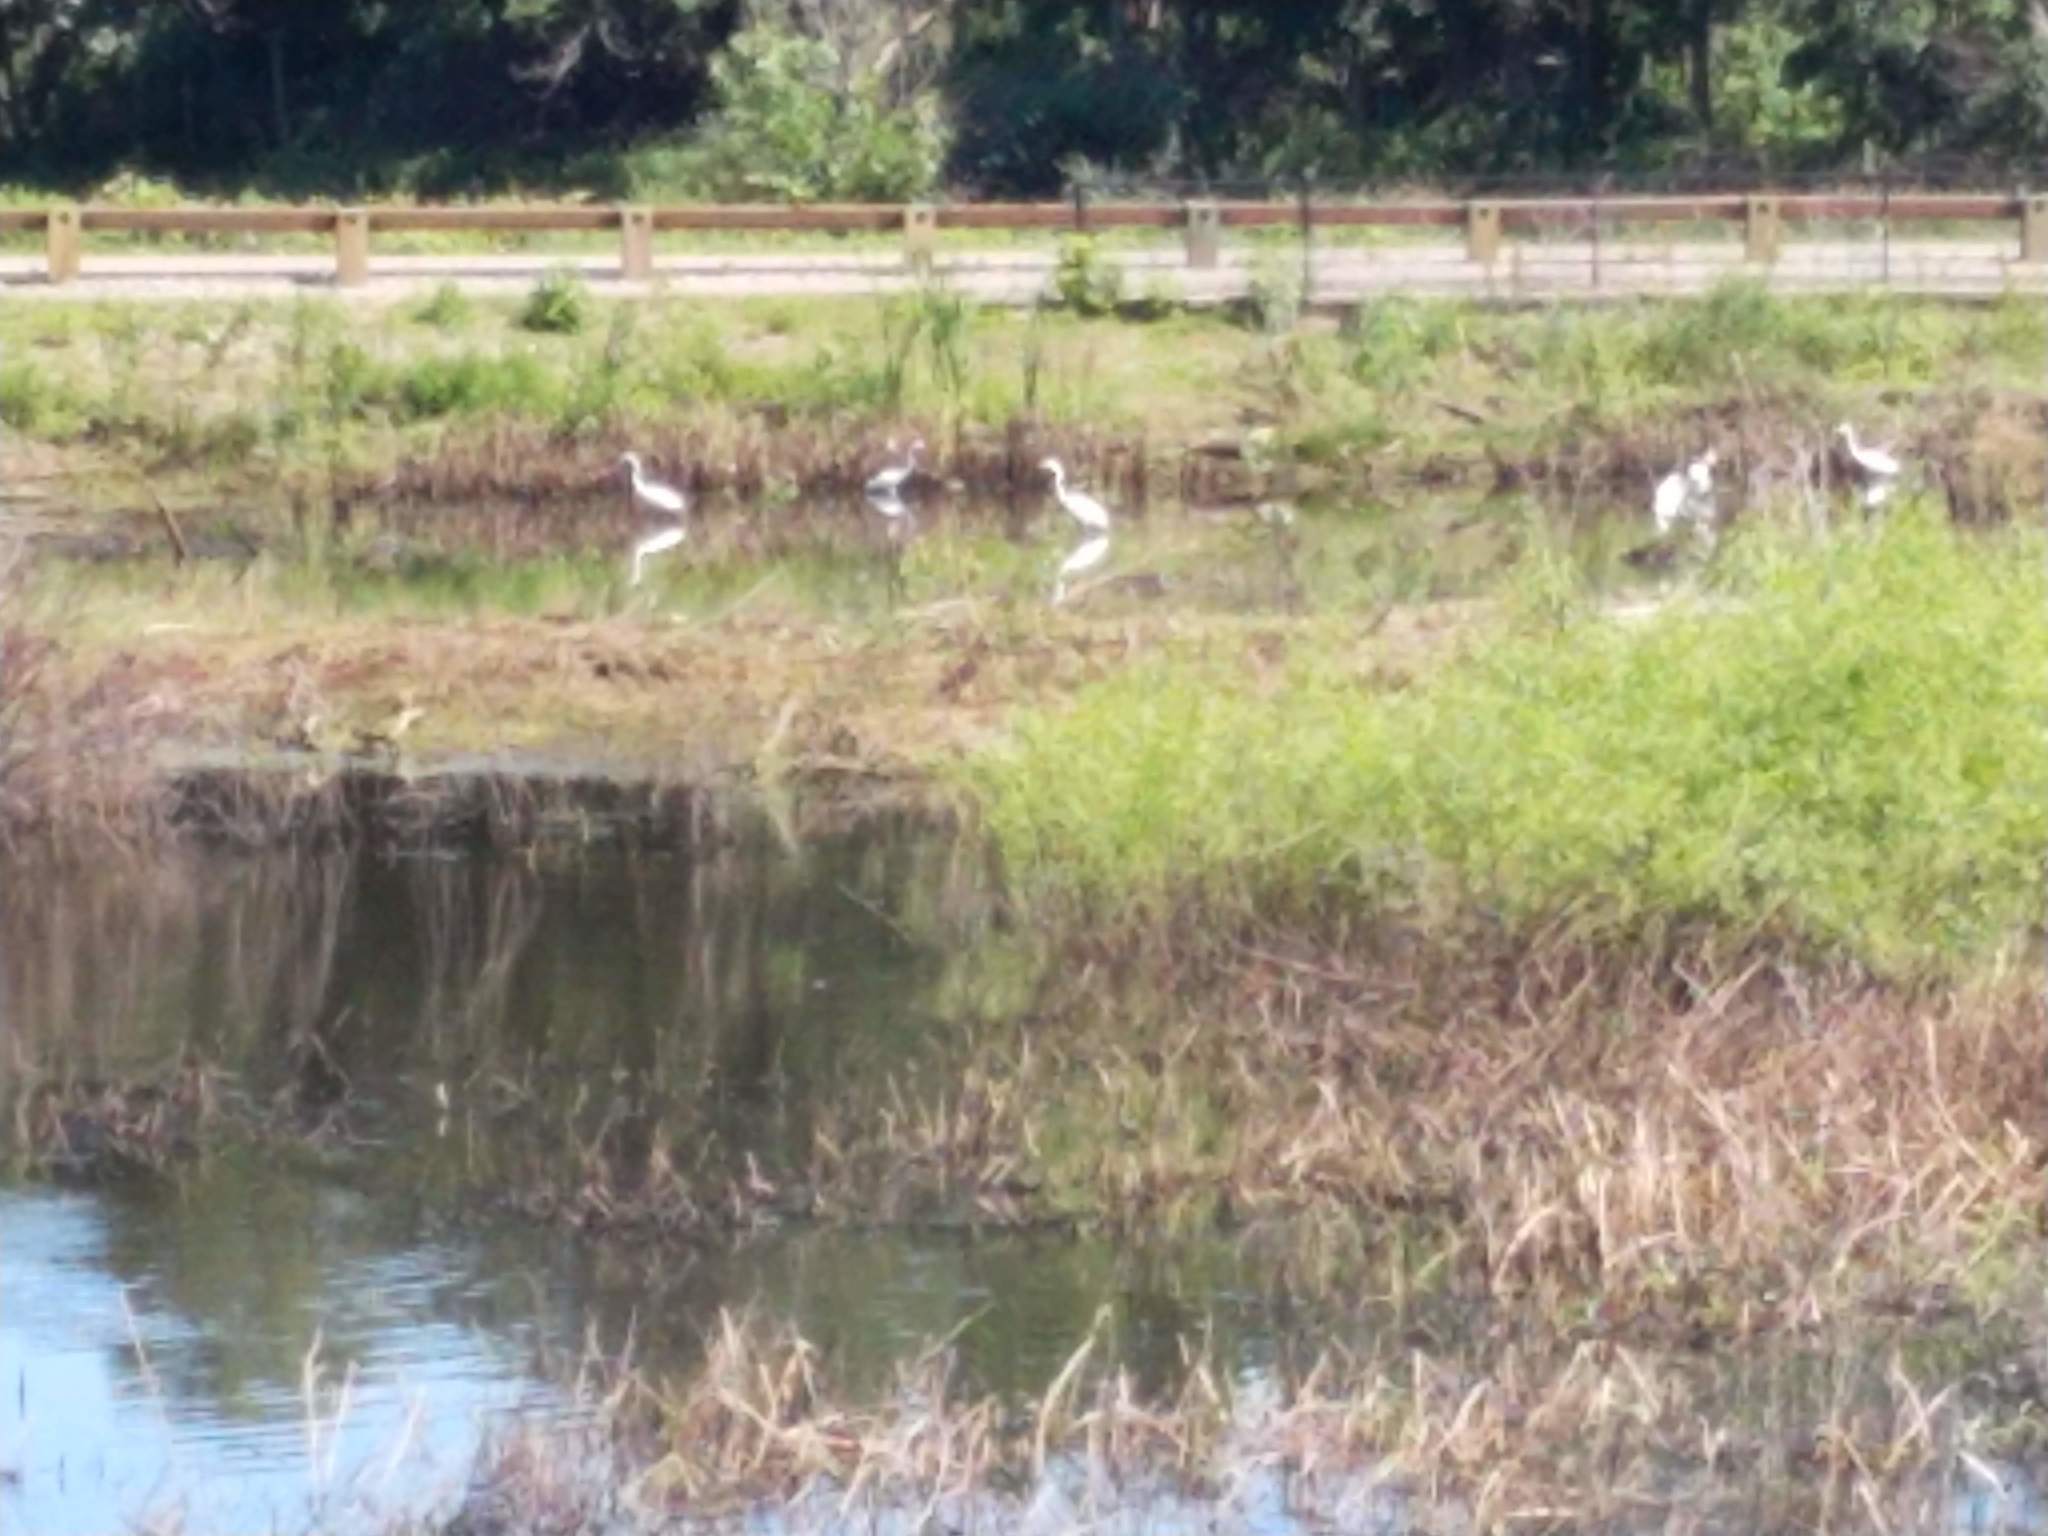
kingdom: Animalia
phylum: Chordata
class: Aves
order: Pelecaniformes
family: Ardeidae
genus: Ardea
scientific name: Ardea alba
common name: Great egret
